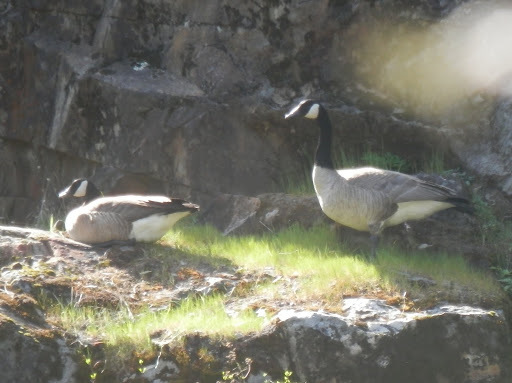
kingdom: Animalia
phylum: Chordata
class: Aves
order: Anseriformes
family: Anatidae
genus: Branta
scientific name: Branta canadensis
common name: Canada goose
